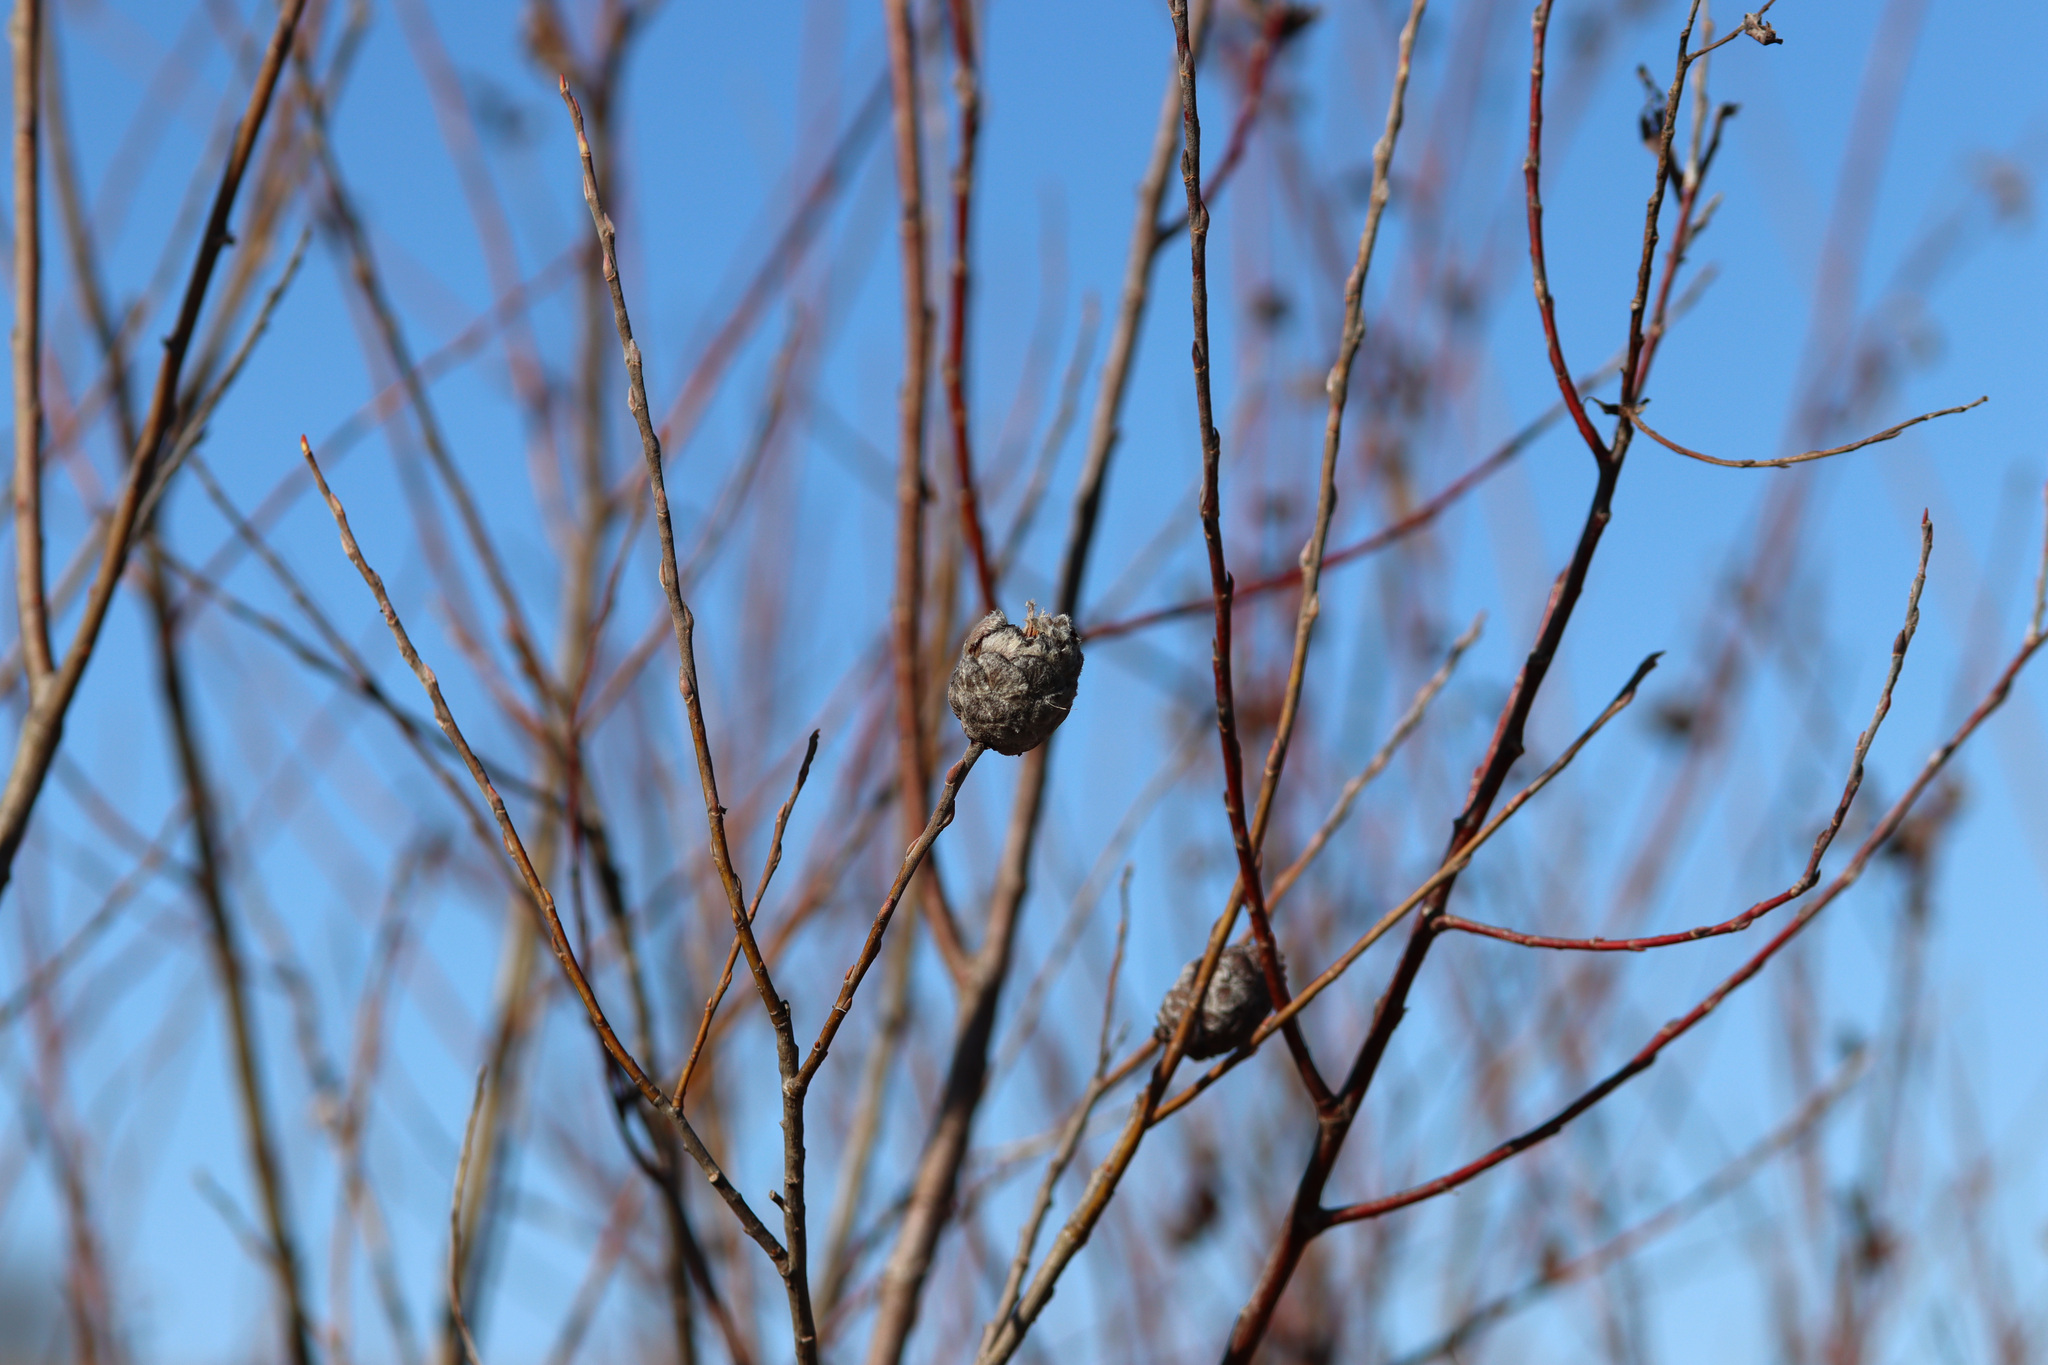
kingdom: Animalia
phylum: Arthropoda
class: Insecta
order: Diptera
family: Cecidomyiidae
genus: Rabdophaga
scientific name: Rabdophaga strobiloides
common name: Willow pinecone gall midge
